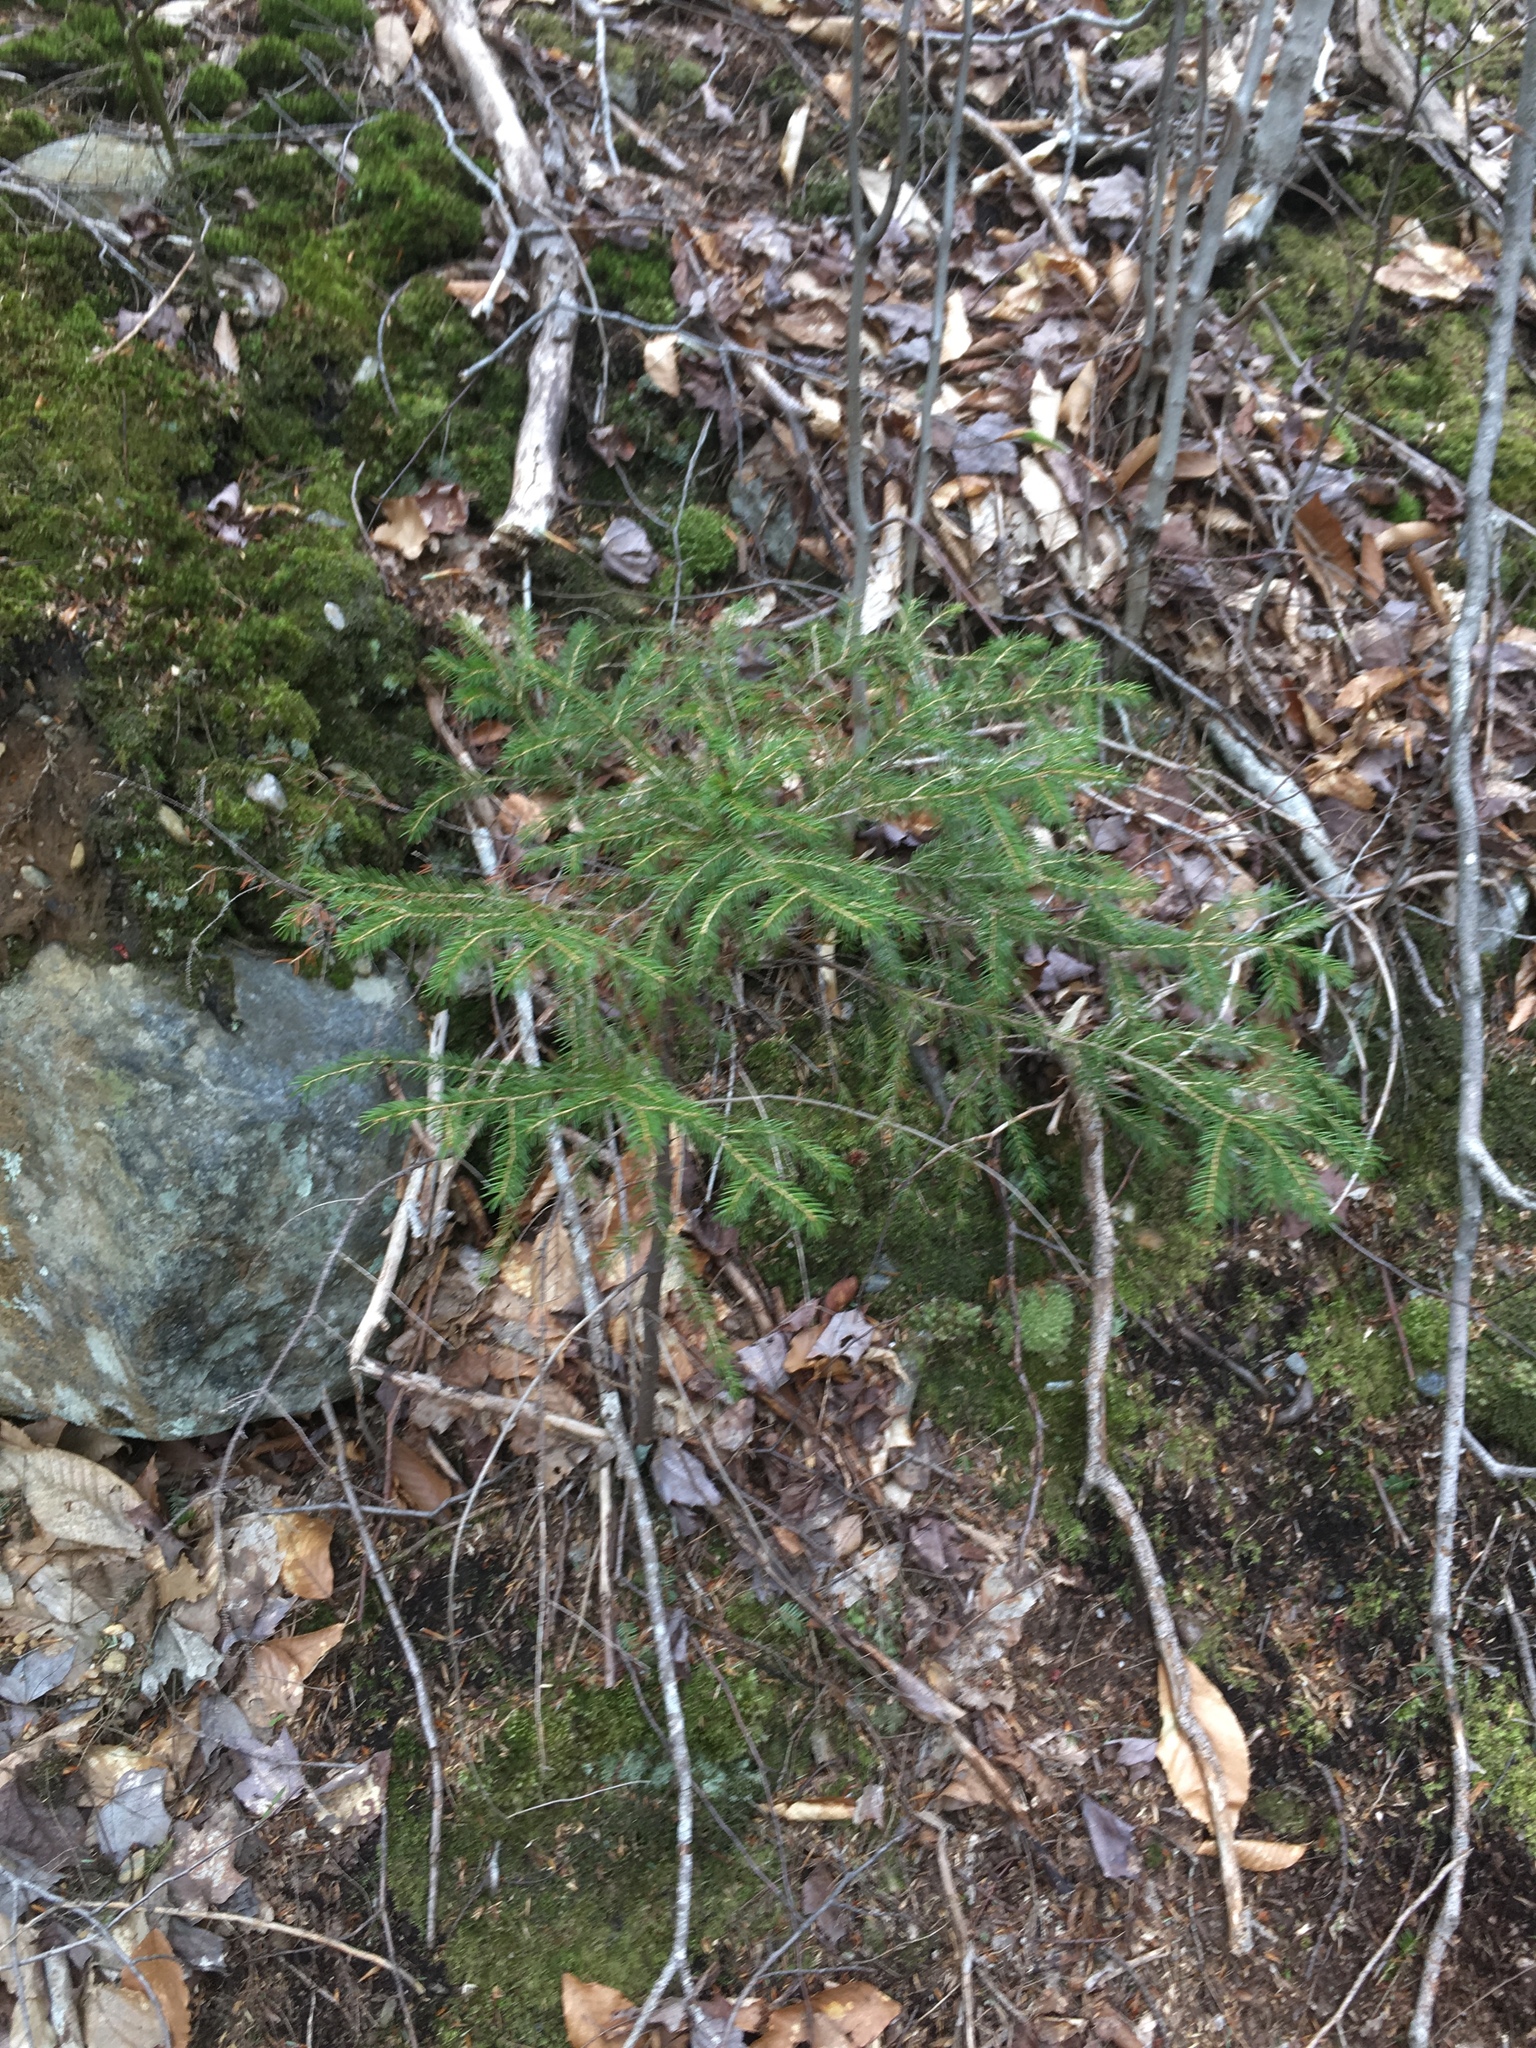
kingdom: Plantae
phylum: Tracheophyta
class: Pinopsida
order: Pinales
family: Pinaceae
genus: Picea
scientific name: Picea rubens
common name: Red spruce
